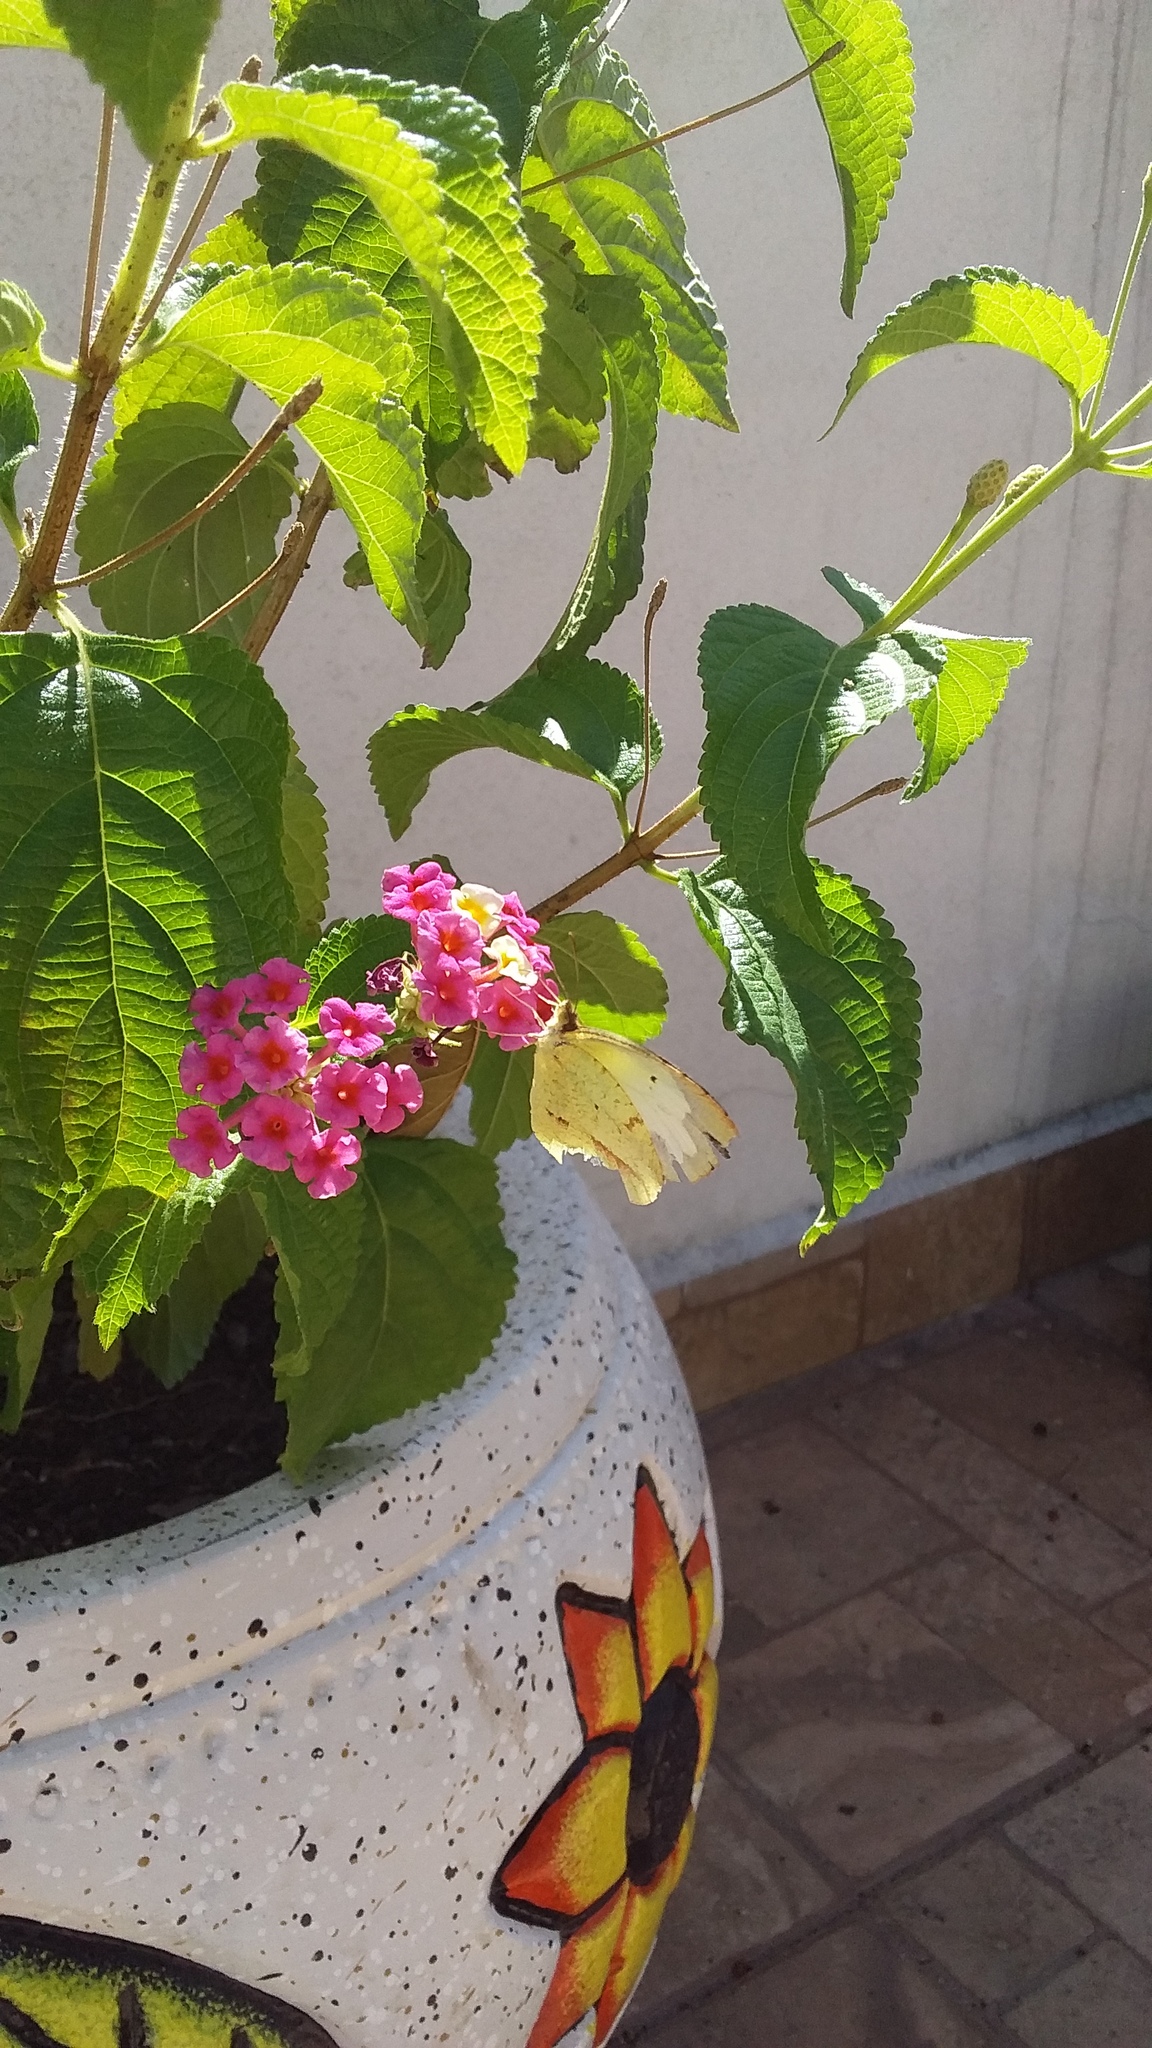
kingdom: Animalia
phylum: Arthropoda
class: Insecta
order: Lepidoptera
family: Pieridae
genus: Abaeis
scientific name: Abaeis mexicana
